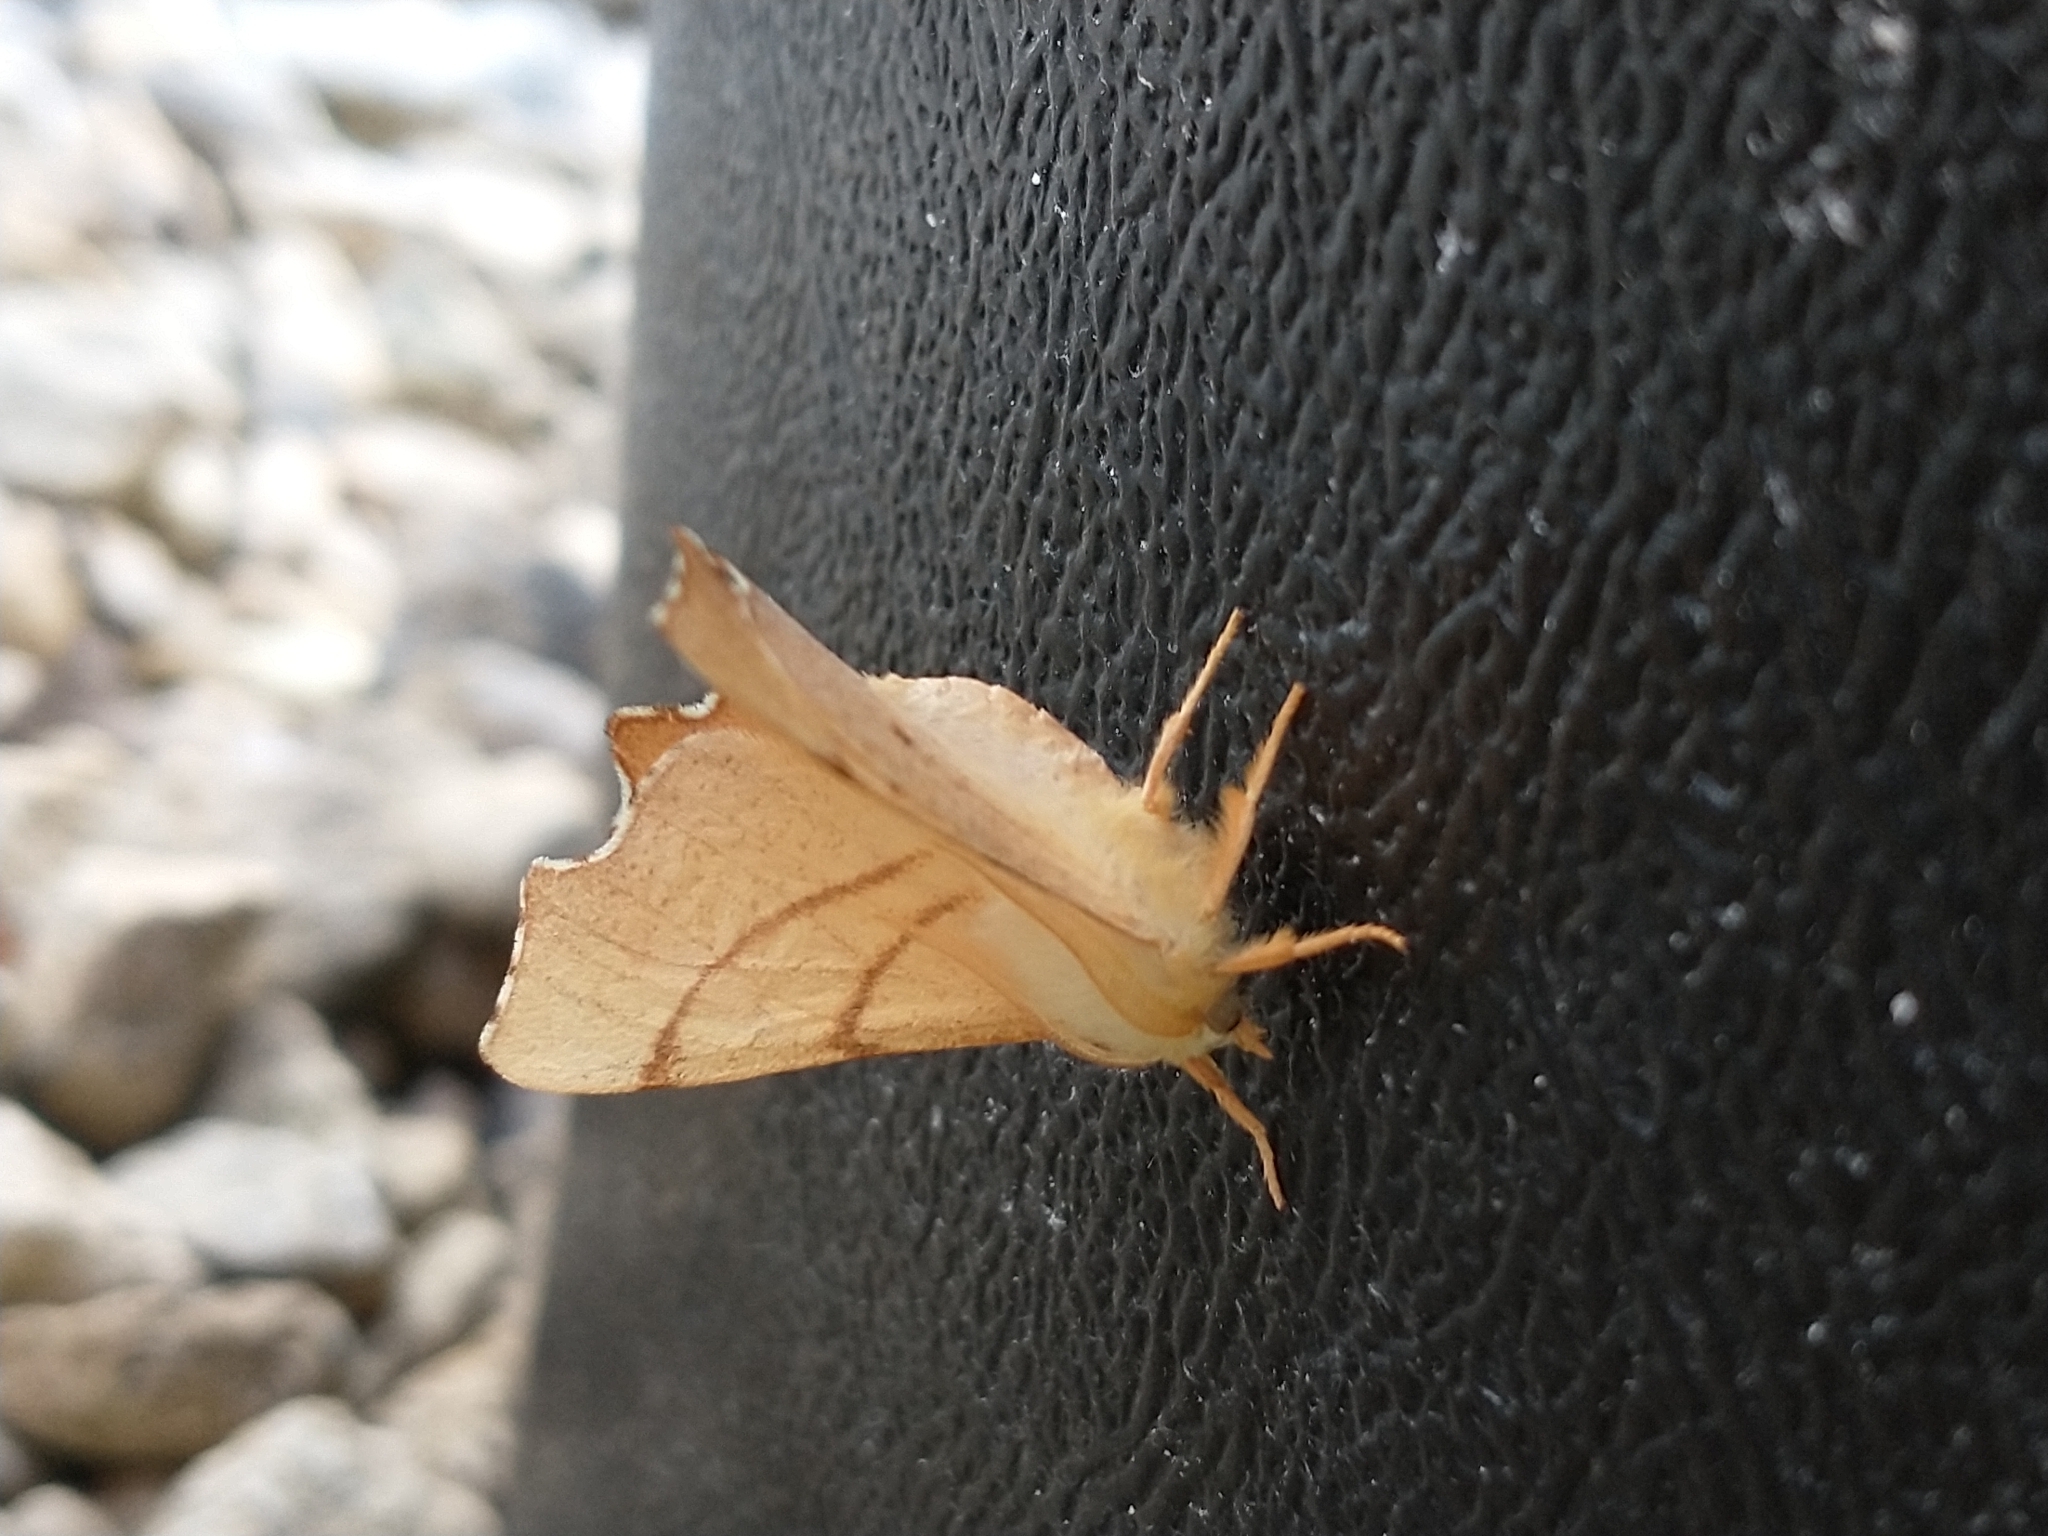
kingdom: Animalia
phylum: Arthropoda
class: Insecta
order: Lepidoptera
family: Geometridae
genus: Ennomos
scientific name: Ennomos erosaria
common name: September thorn
